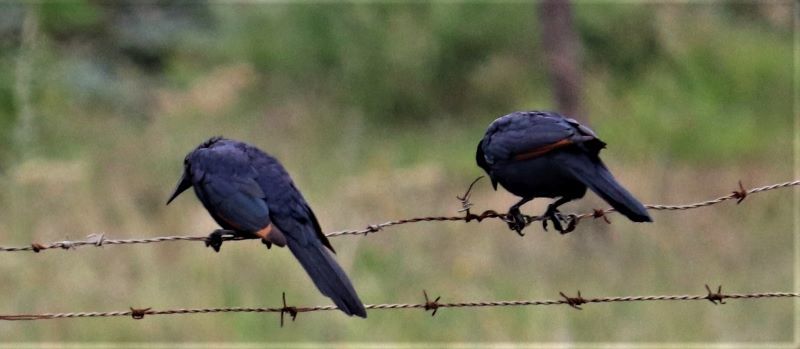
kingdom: Animalia
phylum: Chordata
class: Aves
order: Passeriformes
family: Sturnidae
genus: Onychognathus
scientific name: Onychognathus morio
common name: Red-winged starling
